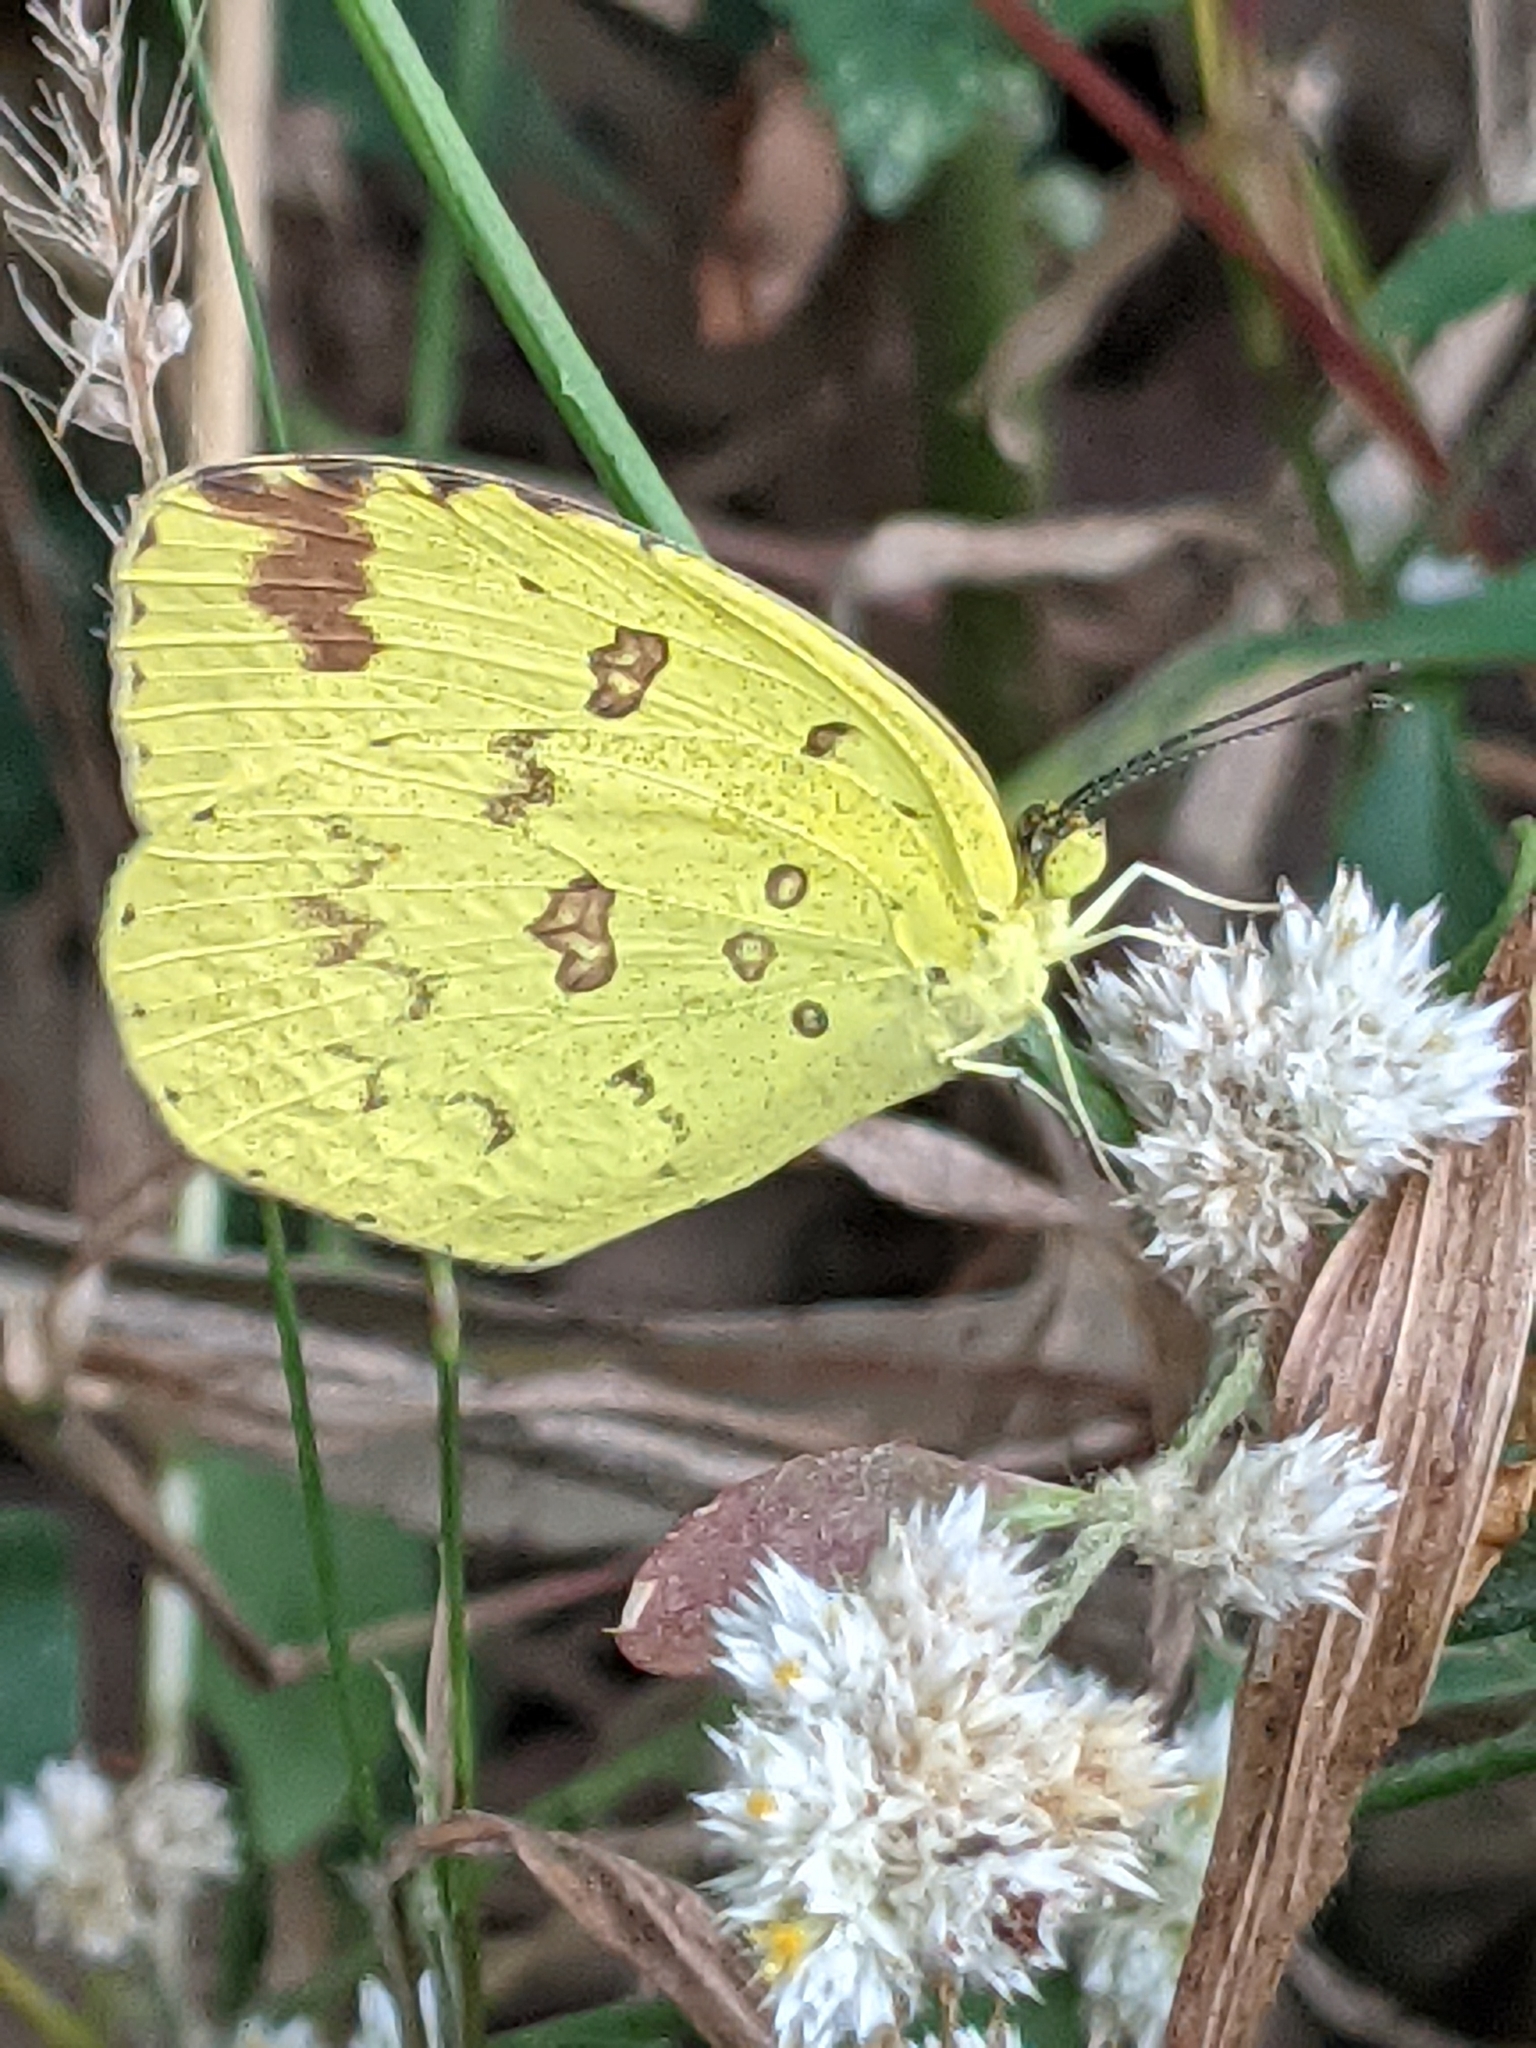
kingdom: Animalia
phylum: Arthropoda
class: Insecta
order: Lepidoptera
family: Pieridae
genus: Eurema
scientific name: Eurema hecabe
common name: Pale grass yellow
